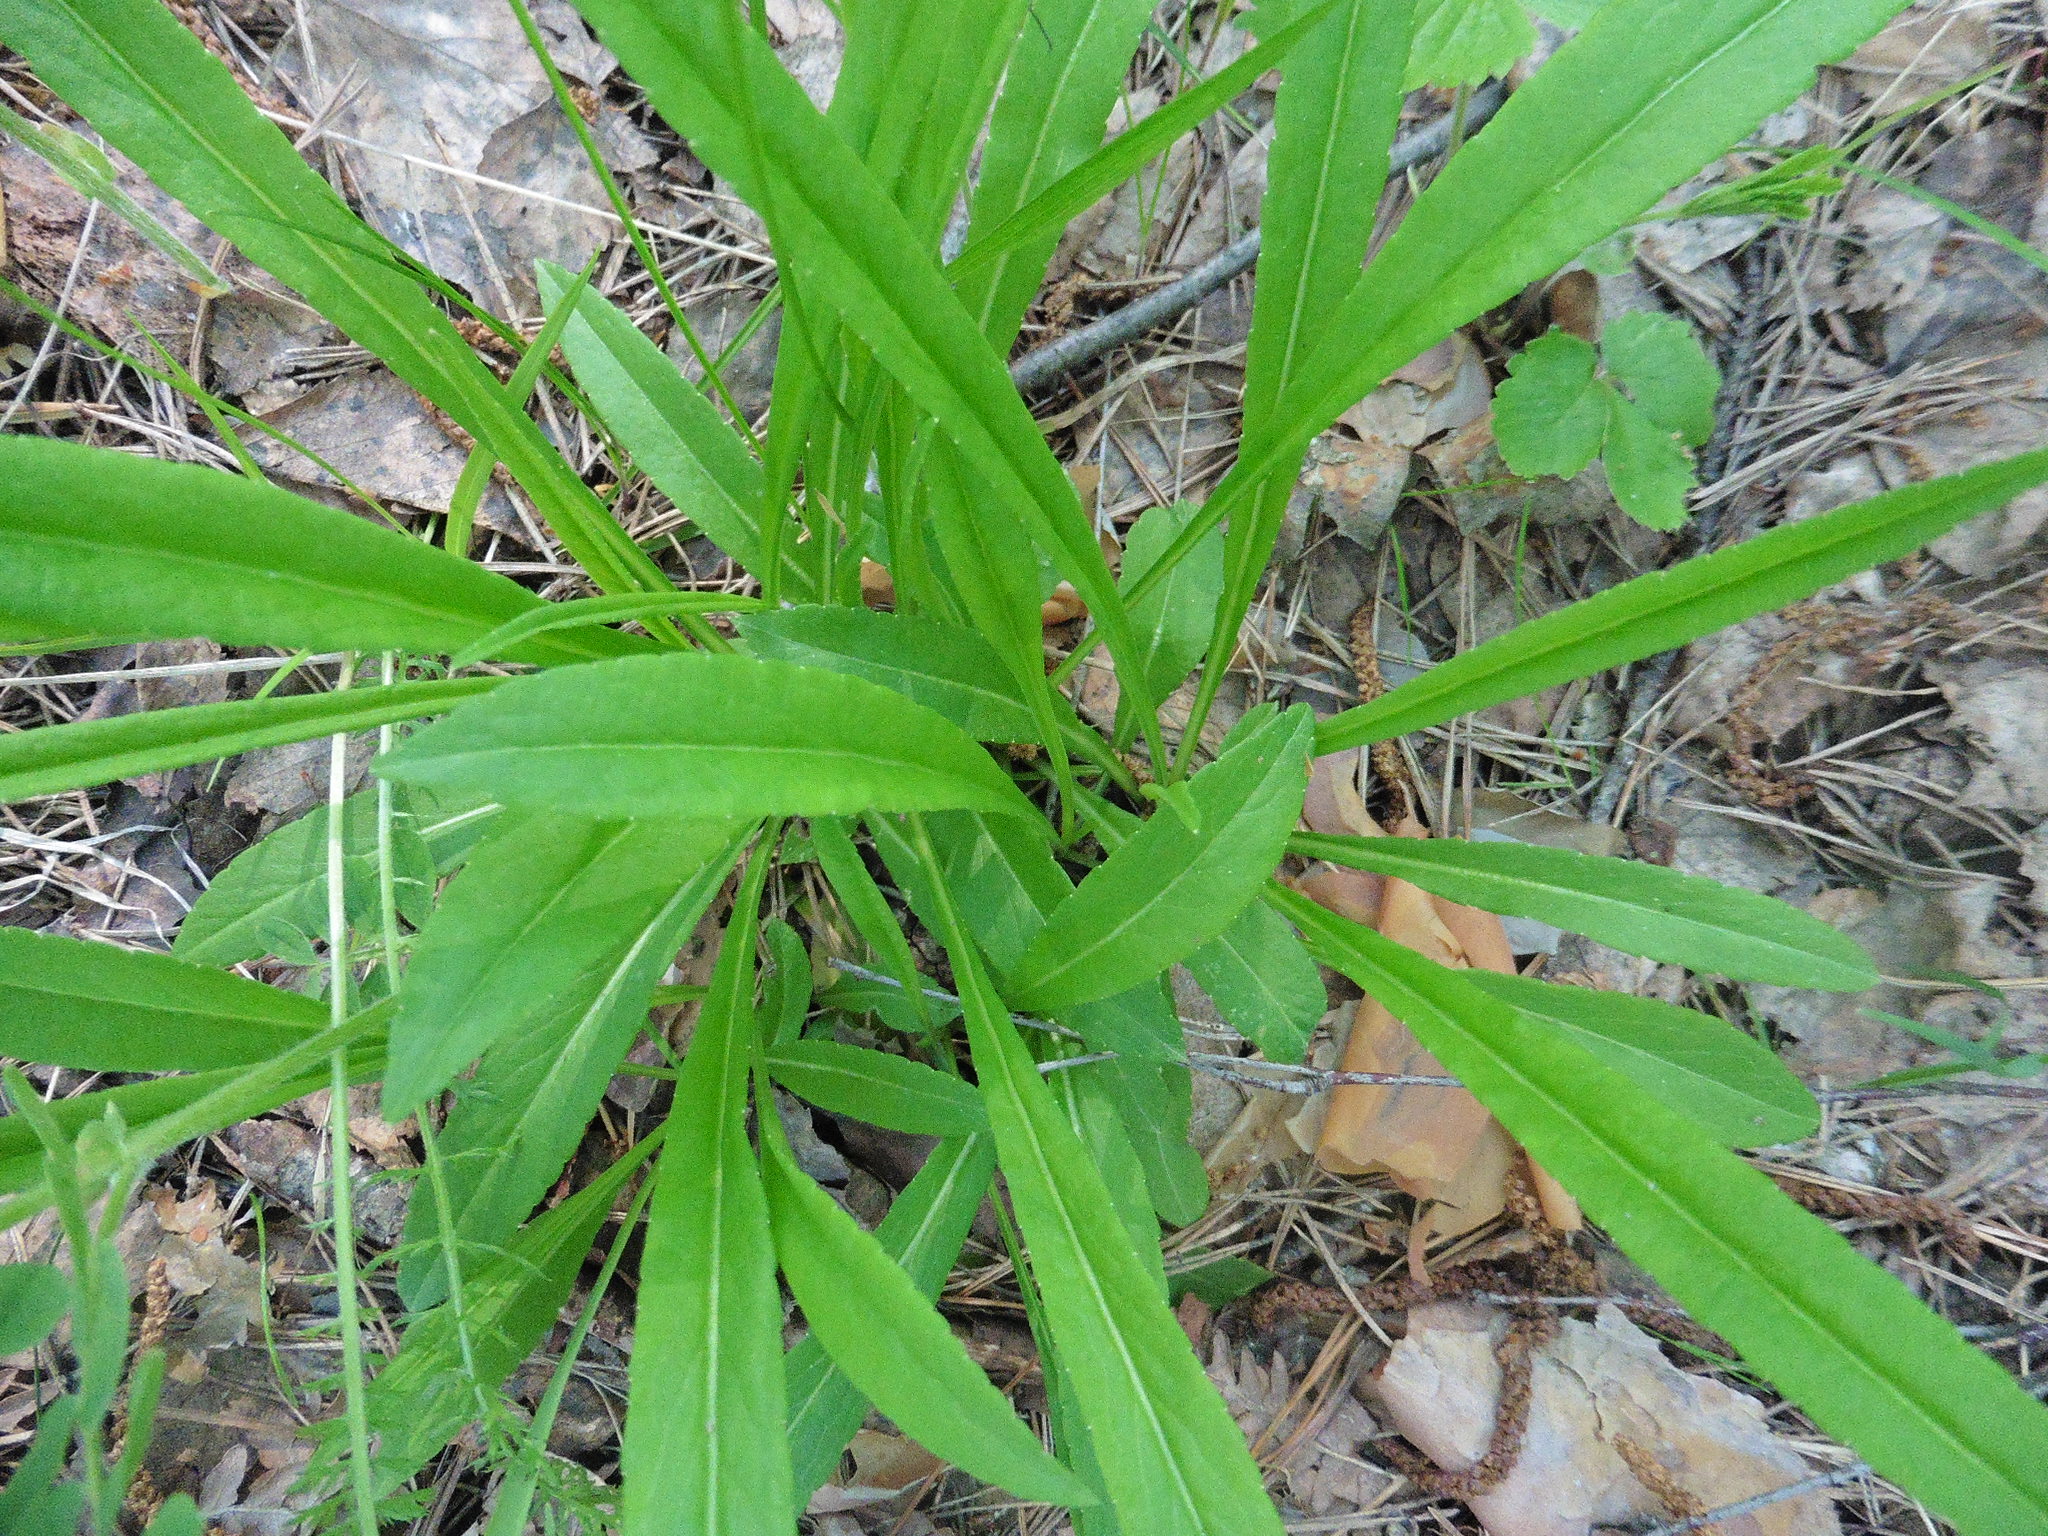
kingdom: Plantae
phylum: Tracheophyta
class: Magnoliopsida
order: Asterales
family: Campanulaceae
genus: Campanula
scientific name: Campanula persicifolia
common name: Peach-leaved bellflower
